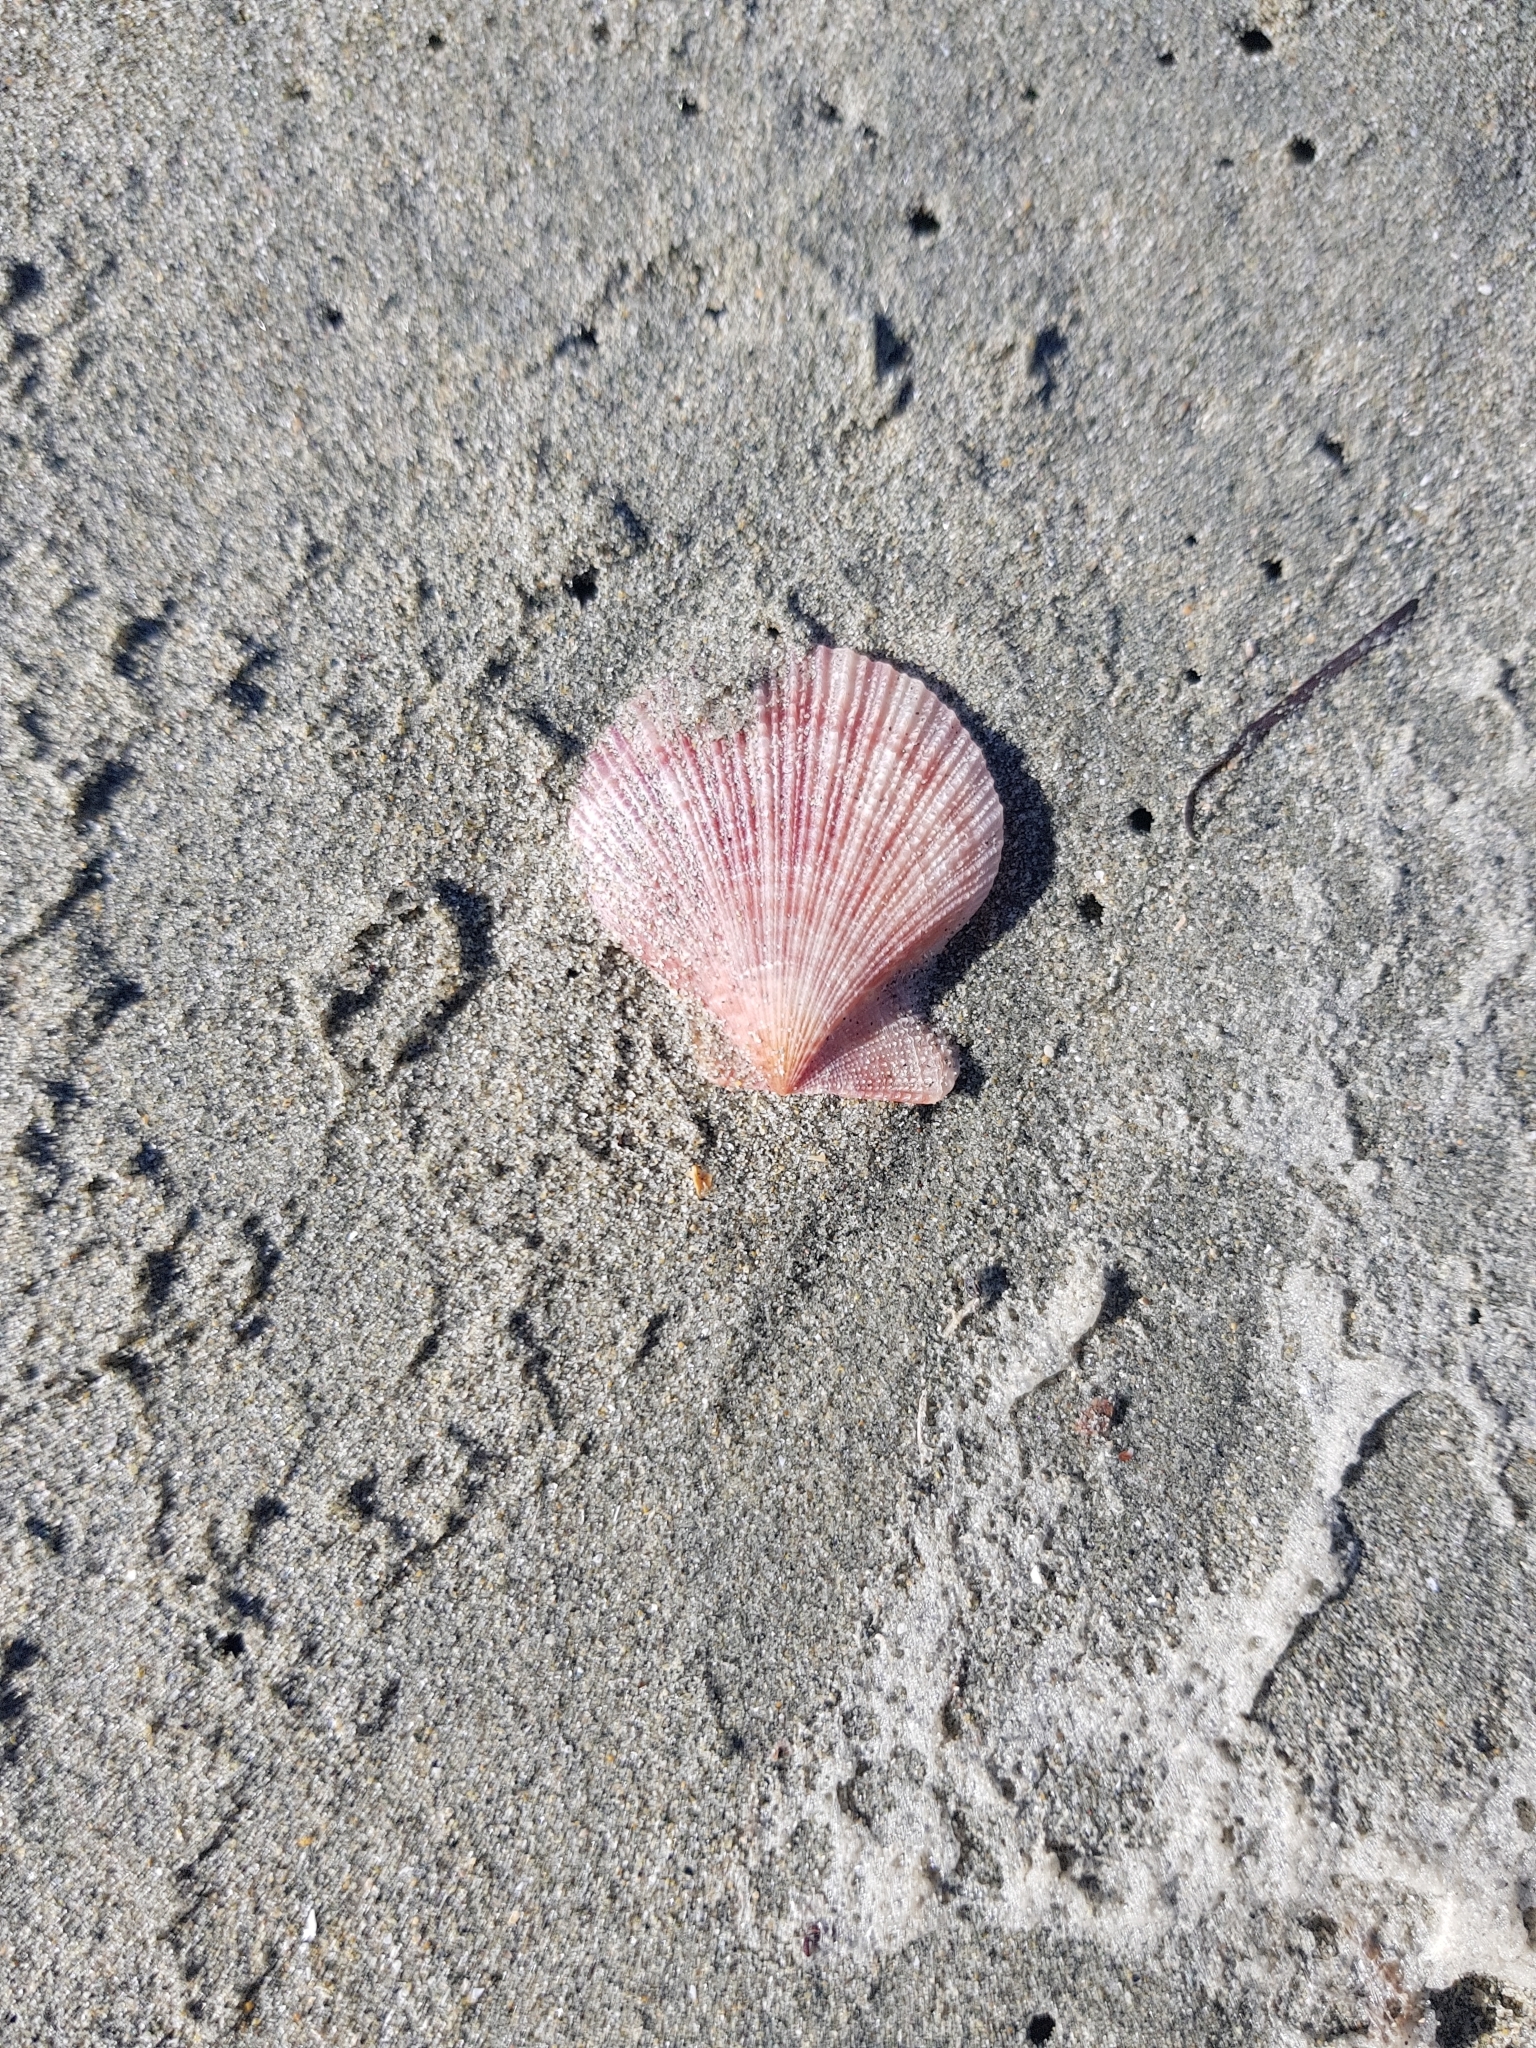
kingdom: Animalia
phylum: Mollusca
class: Bivalvia
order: Pectinida
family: Pectinidae
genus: Talochlamys
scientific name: Talochlamys zelandiae
